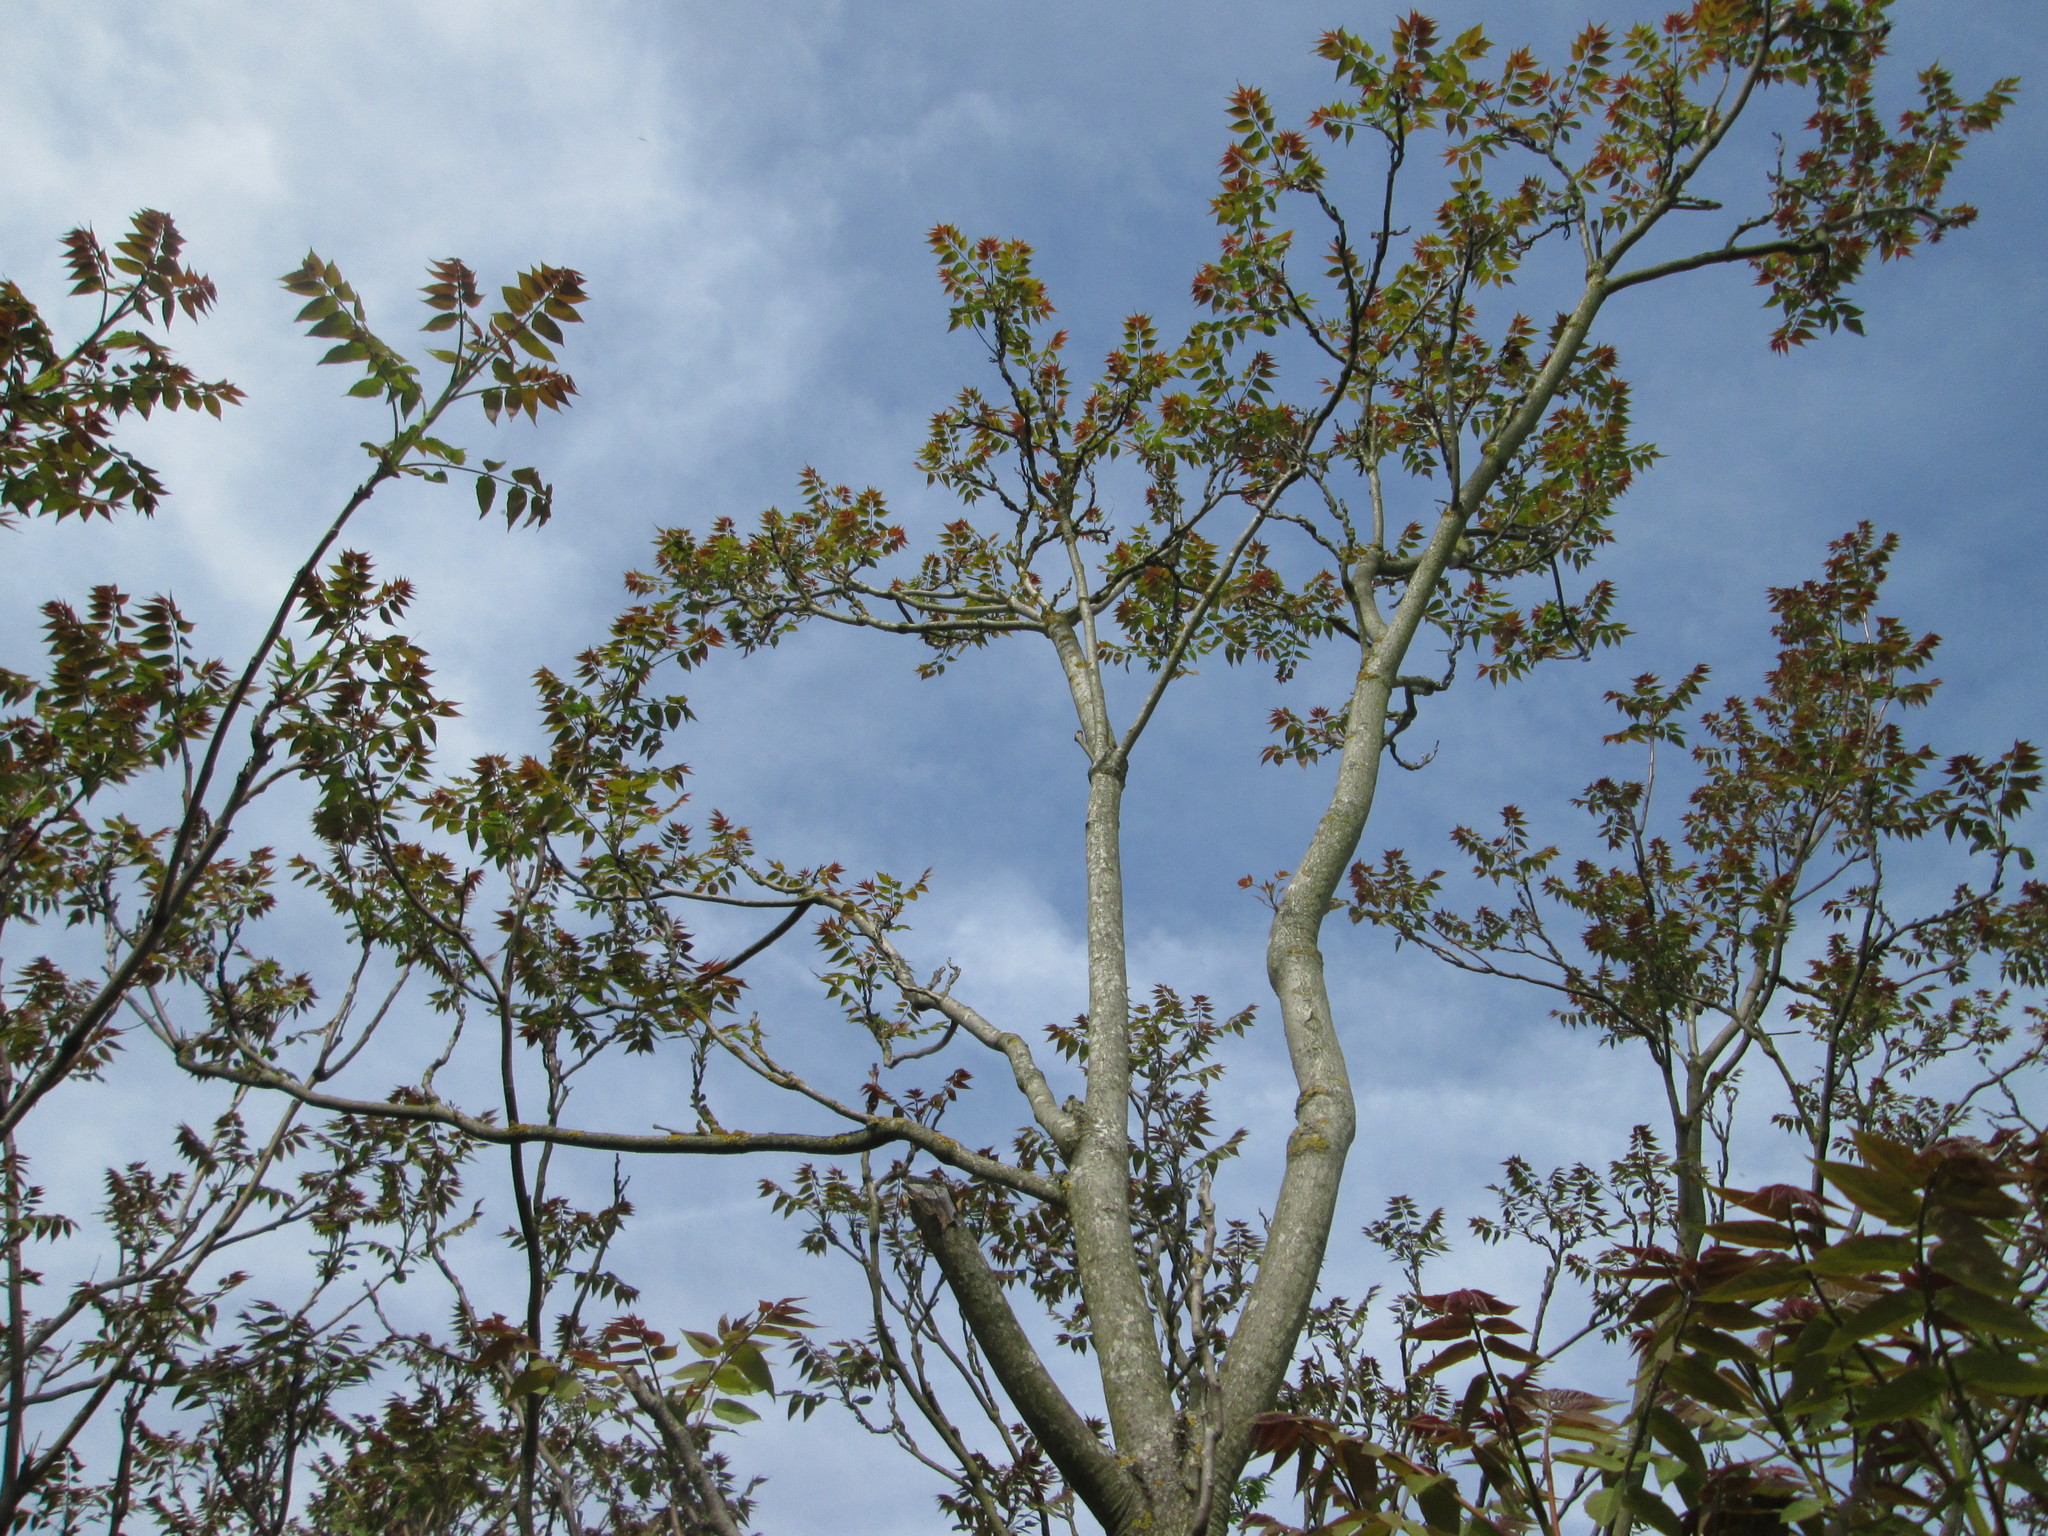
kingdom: Plantae
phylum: Tracheophyta
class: Magnoliopsida
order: Sapindales
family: Simaroubaceae
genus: Ailanthus
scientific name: Ailanthus altissima
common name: Tree-of-heaven
